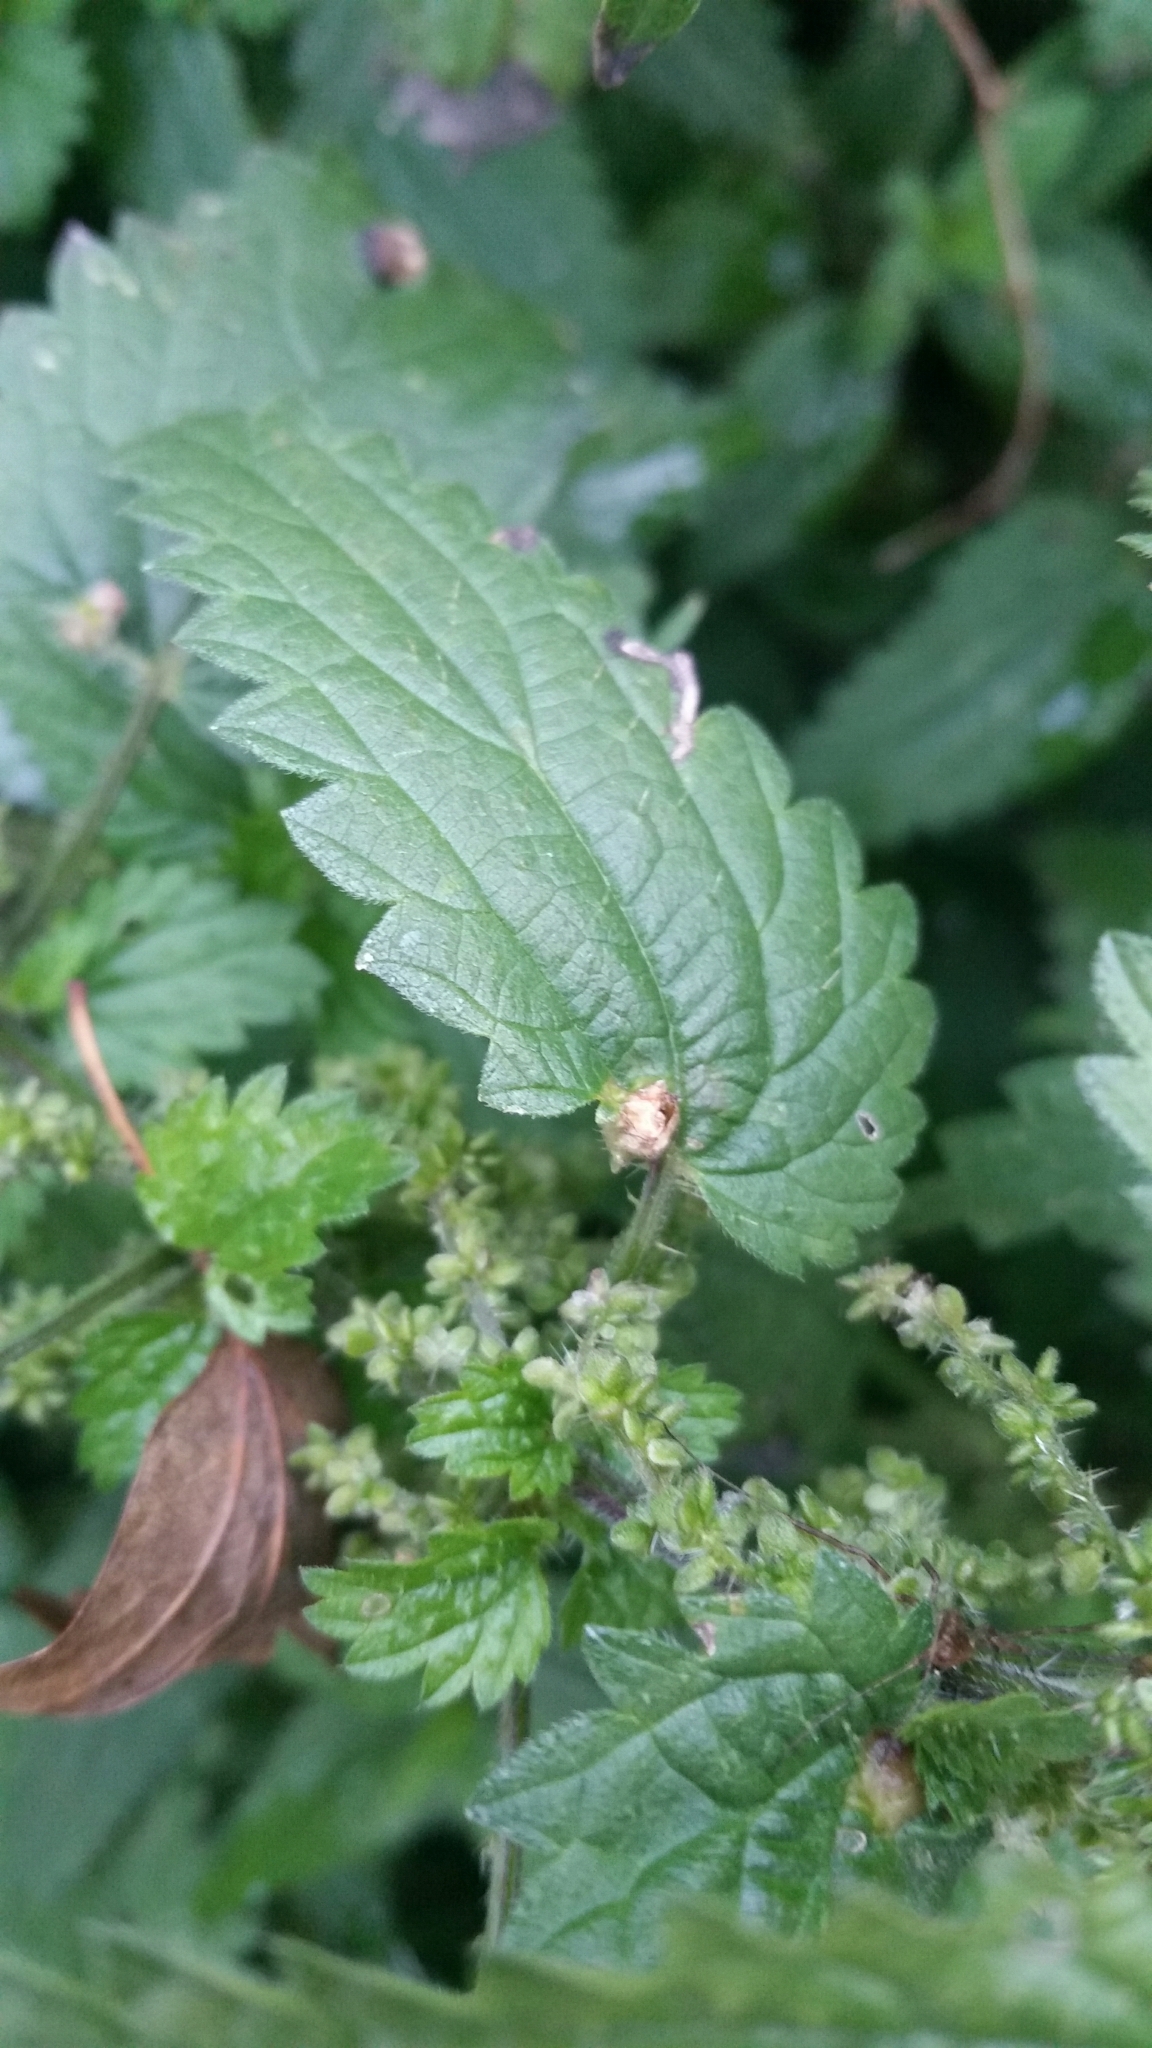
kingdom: Animalia
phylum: Arthropoda
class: Insecta
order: Diptera
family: Cecidomyiidae
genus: Dasineura
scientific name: Dasineura urticae
